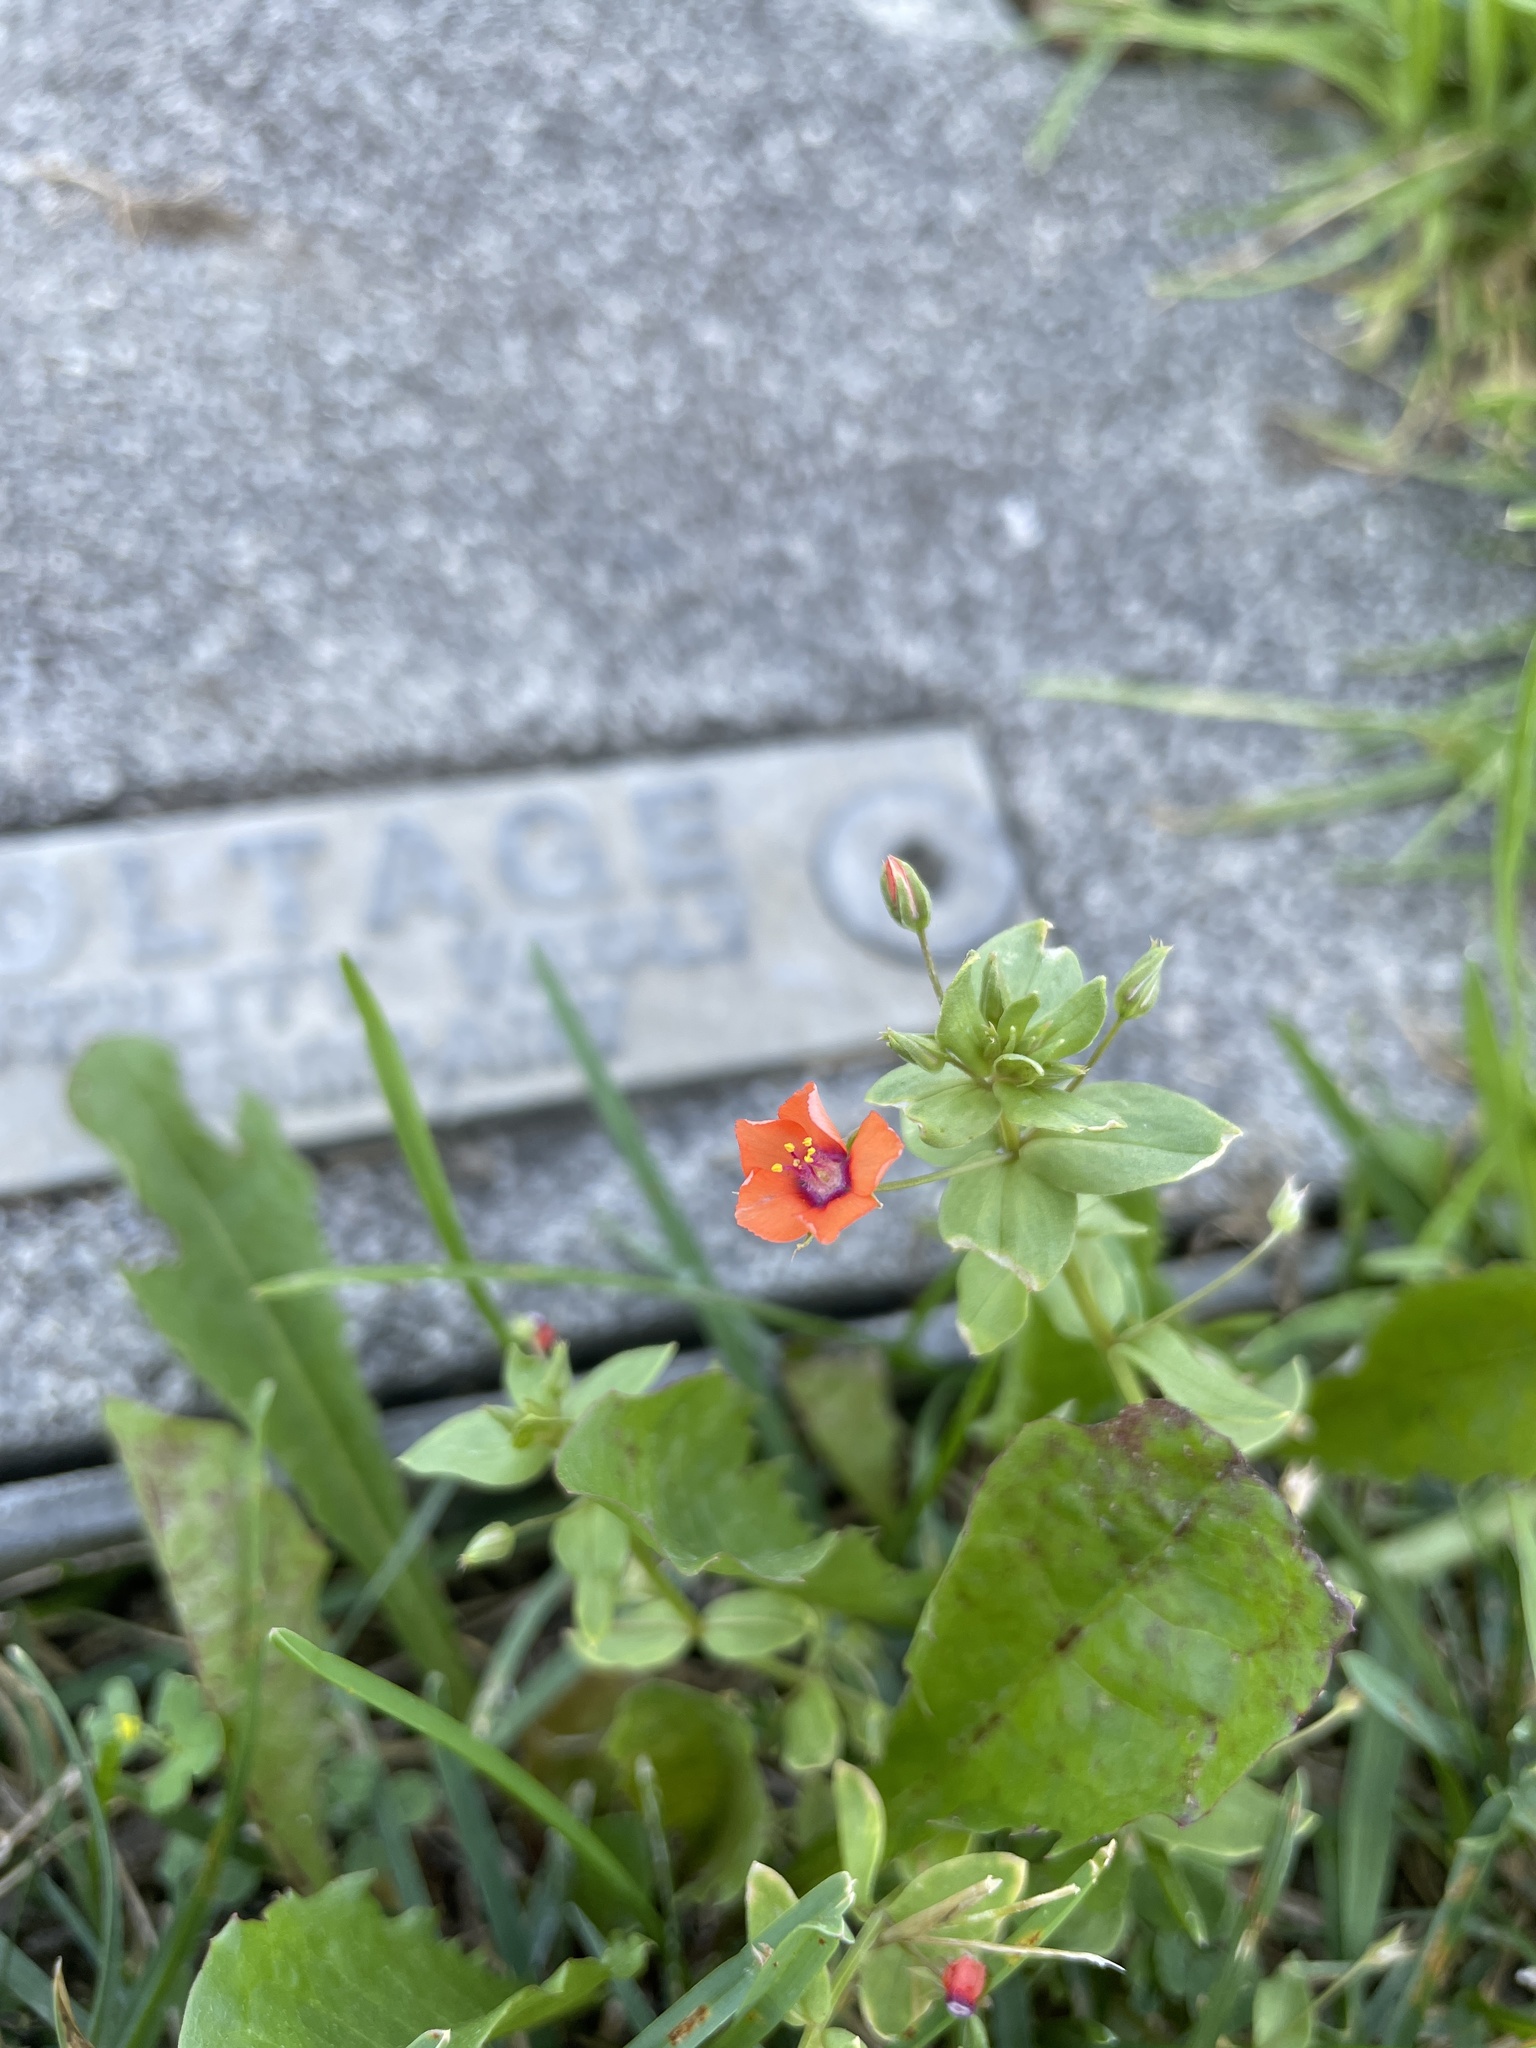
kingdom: Plantae
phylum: Tracheophyta
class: Magnoliopsida
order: Ericales
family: Primulaceae
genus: Lysimachia
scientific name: Lysimachia arvensis
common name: Scarlet pimpernel
